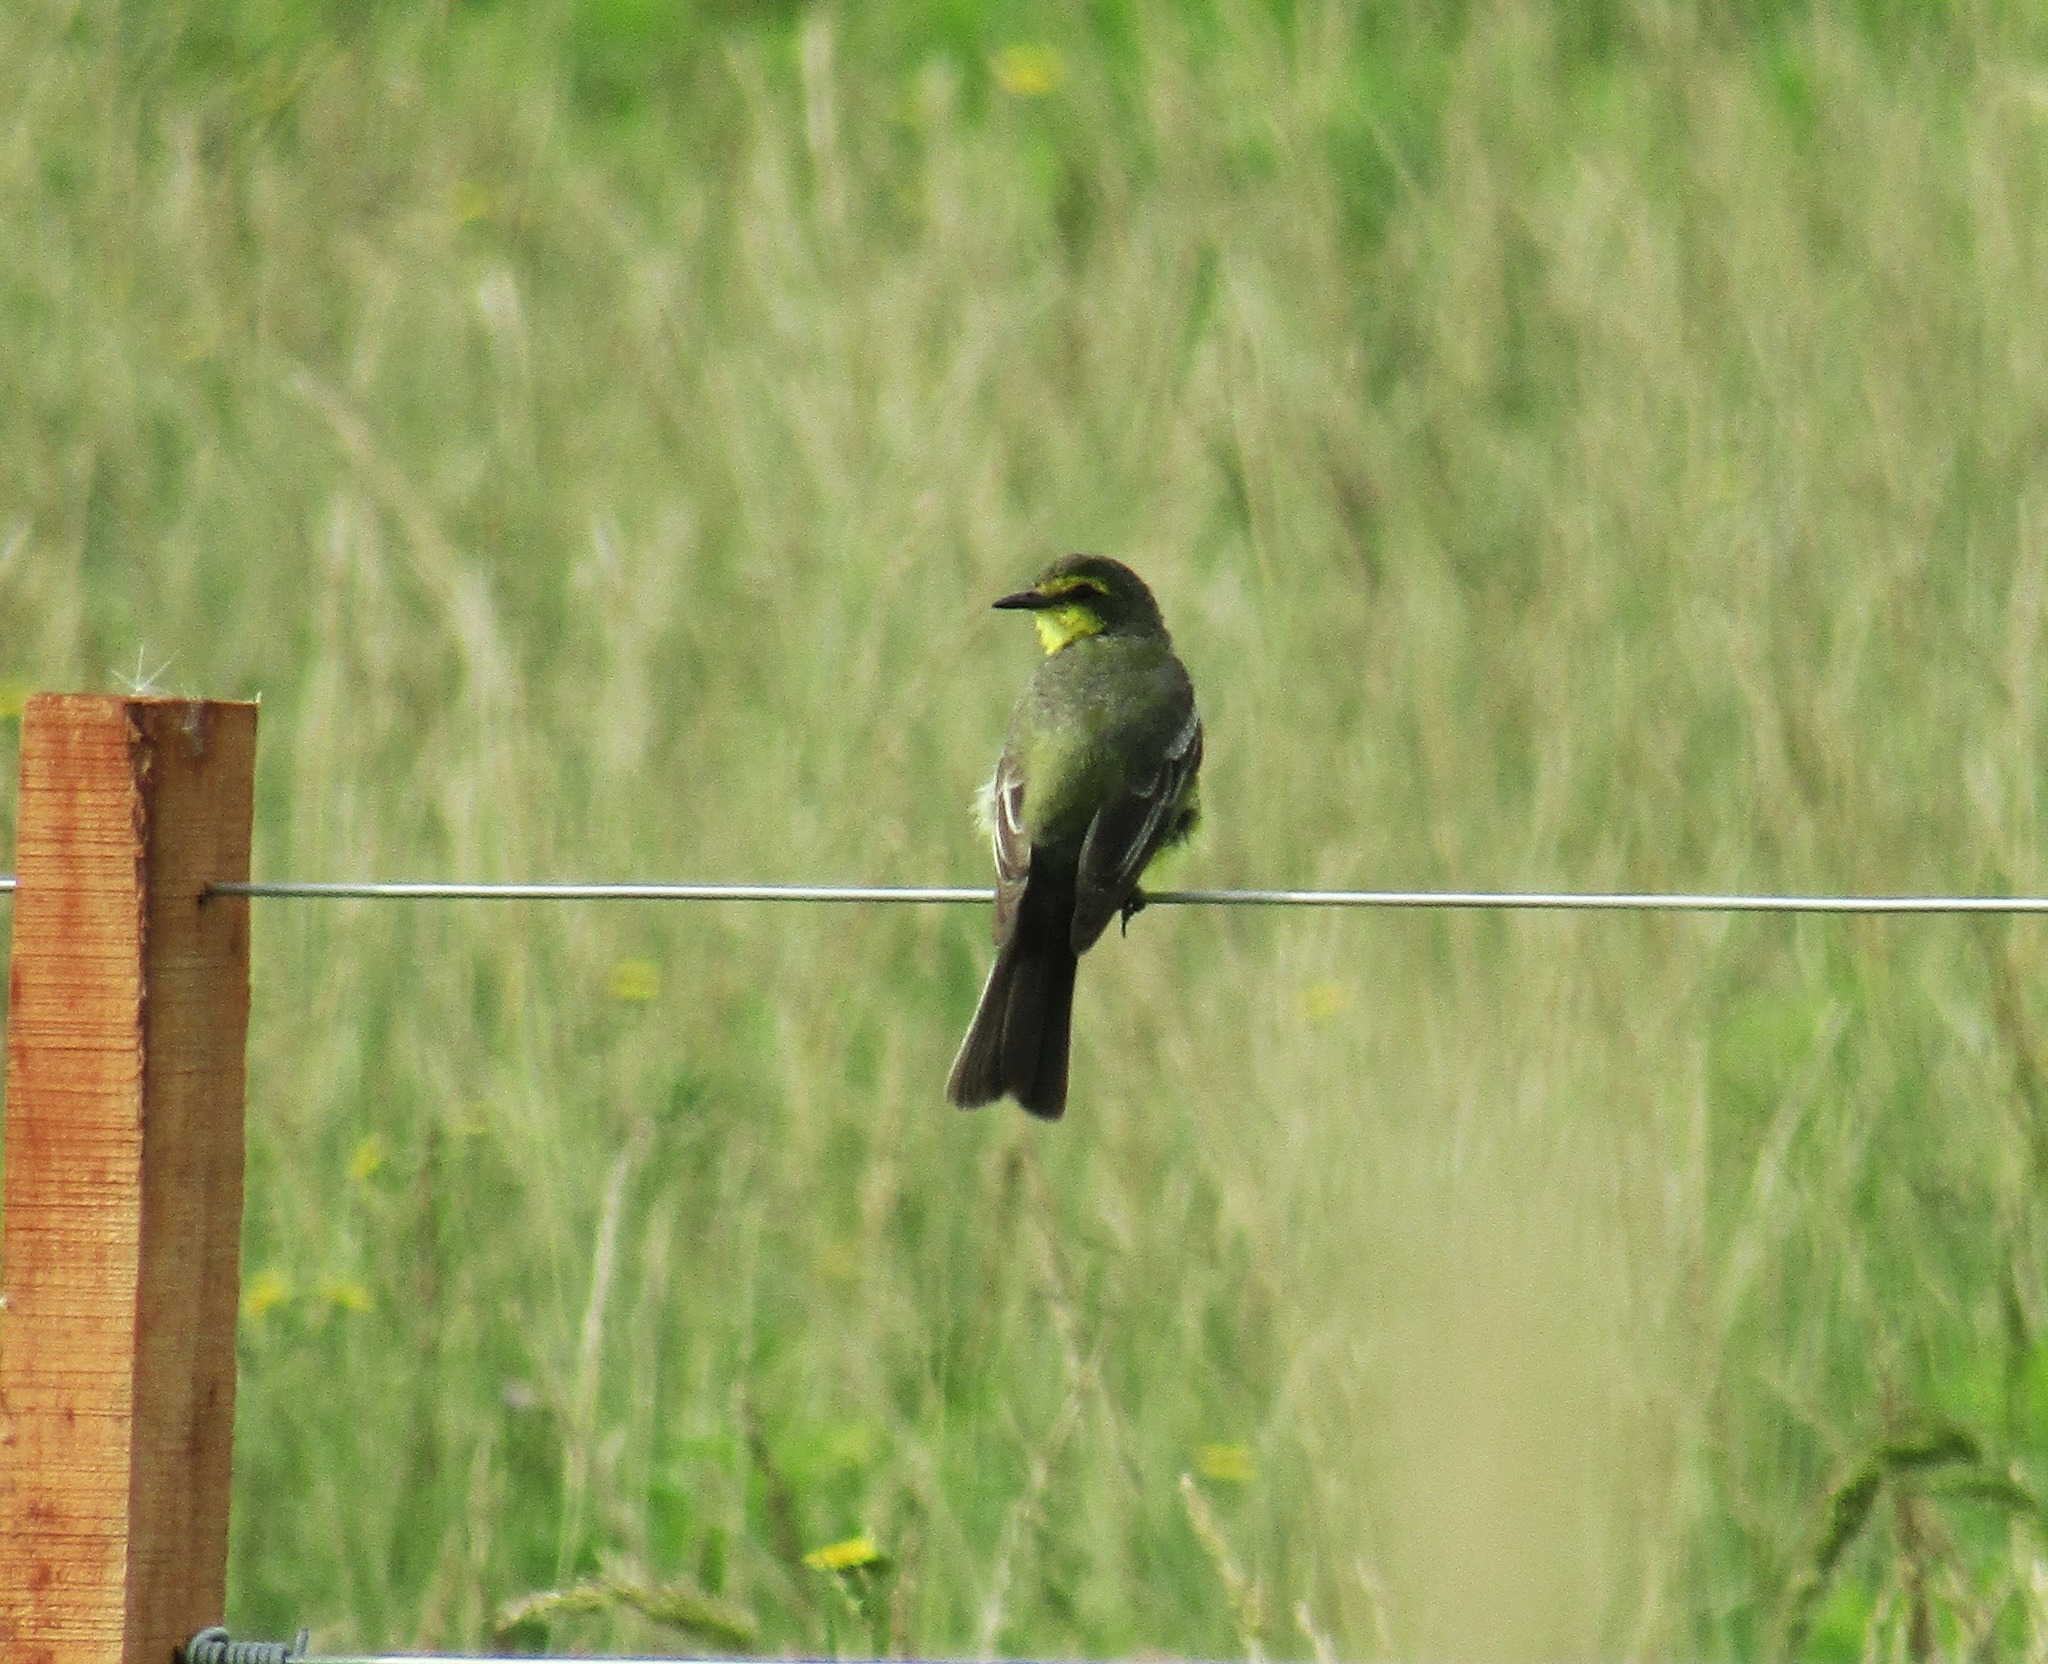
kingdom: Animalia
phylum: Chordata
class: Aves
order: Passeriformes
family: Tyrannidae
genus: Satrapa
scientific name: Satrapa icterophrys
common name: Yellow-browed tyrant
